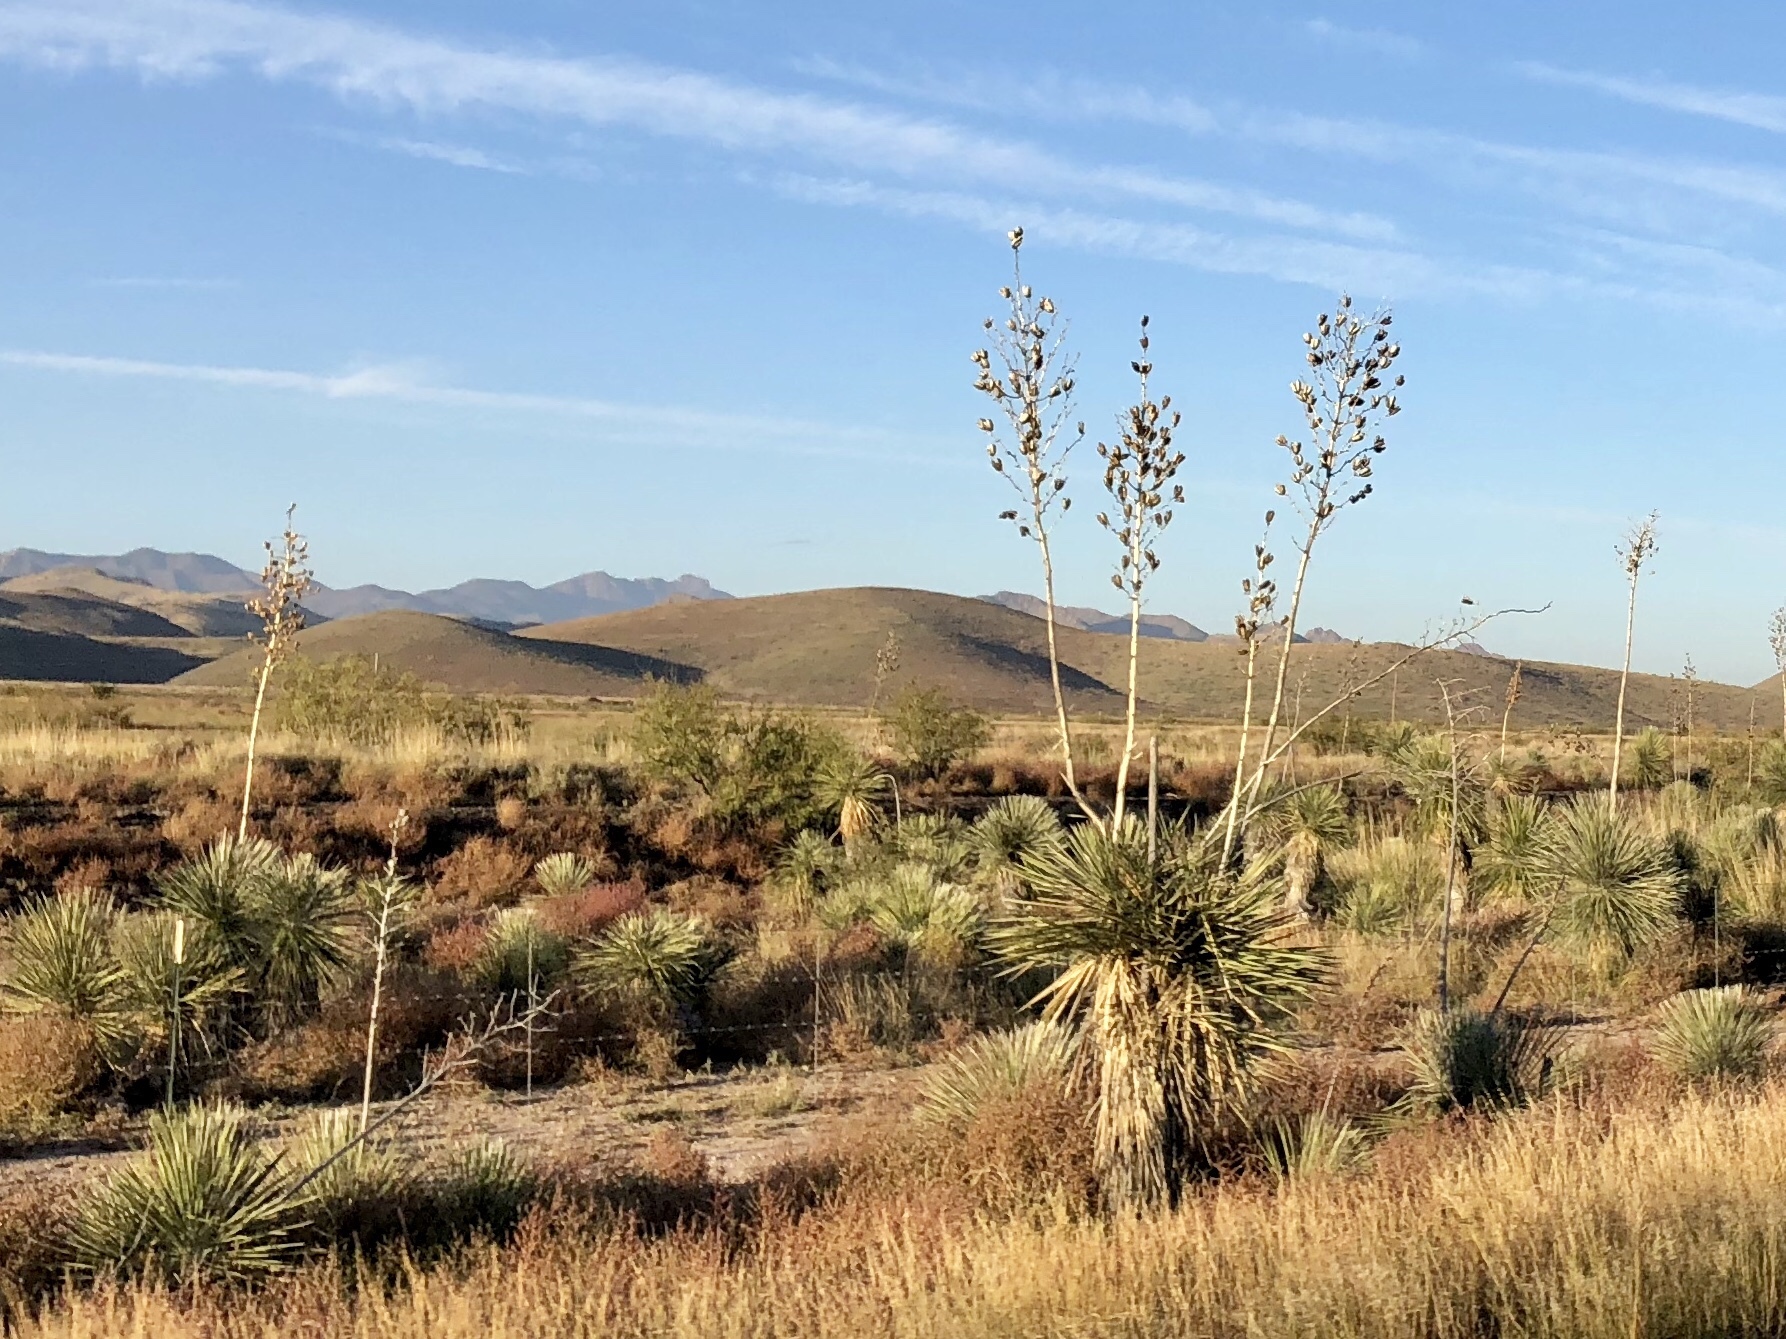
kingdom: Plantae
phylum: Tracheophyta
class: Liliopsida
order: Asparagales
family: Asparagaceae
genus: Yucca
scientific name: Yucca elata
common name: Palmella
